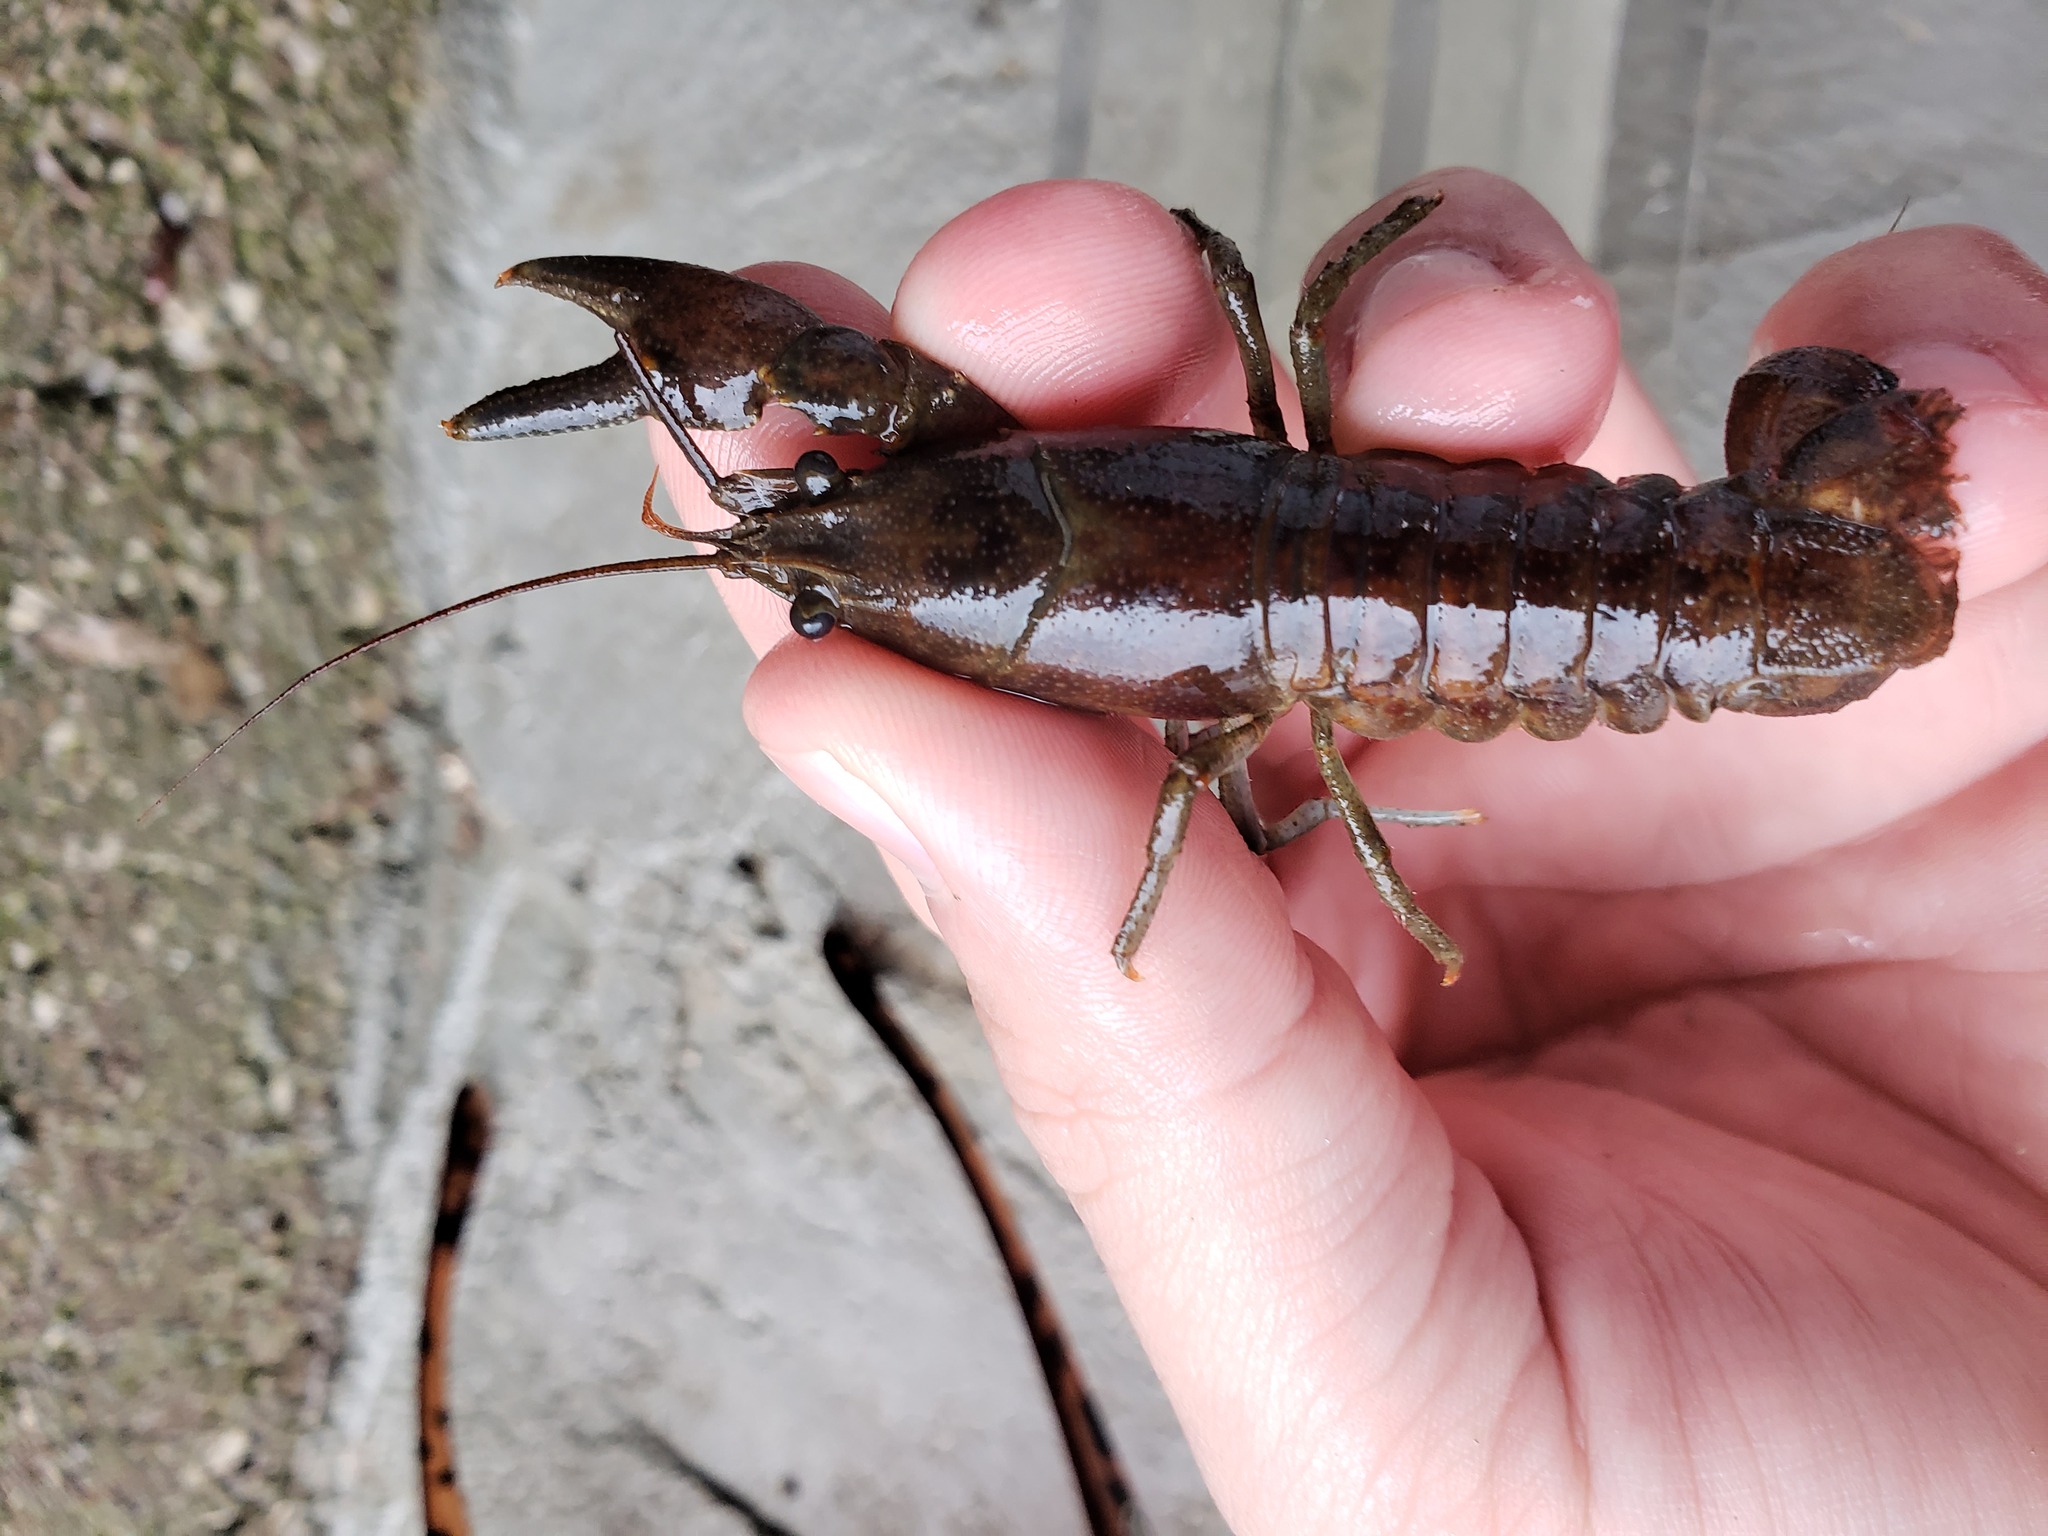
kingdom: Animalia
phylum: Arthropoda
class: Malacostraca
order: Decapoda
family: Cambaridae
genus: Faxonius
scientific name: Faxonius rusticus
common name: Rusty crayfish
